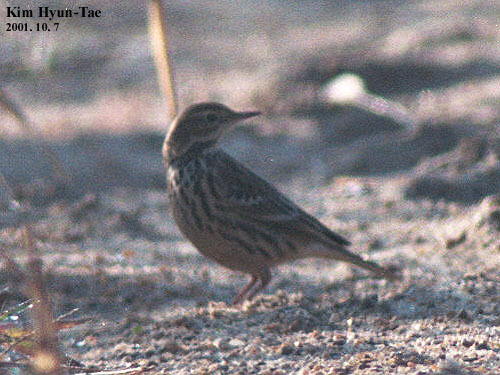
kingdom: Animalia
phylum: Chordata
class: Aves
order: Passeriformes
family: Motacillidae
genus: Anthus
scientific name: Anthus hodgsoni
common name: Olive-backed pipit
